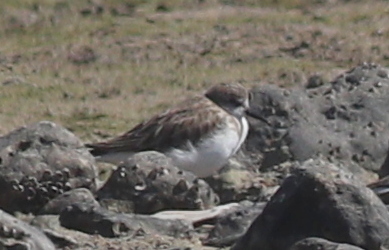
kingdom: Animalia
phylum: Chordata
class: Aves
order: Charadriiformes
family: Scolopacidae
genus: Calidris
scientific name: Calidris minuta
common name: Little stint
